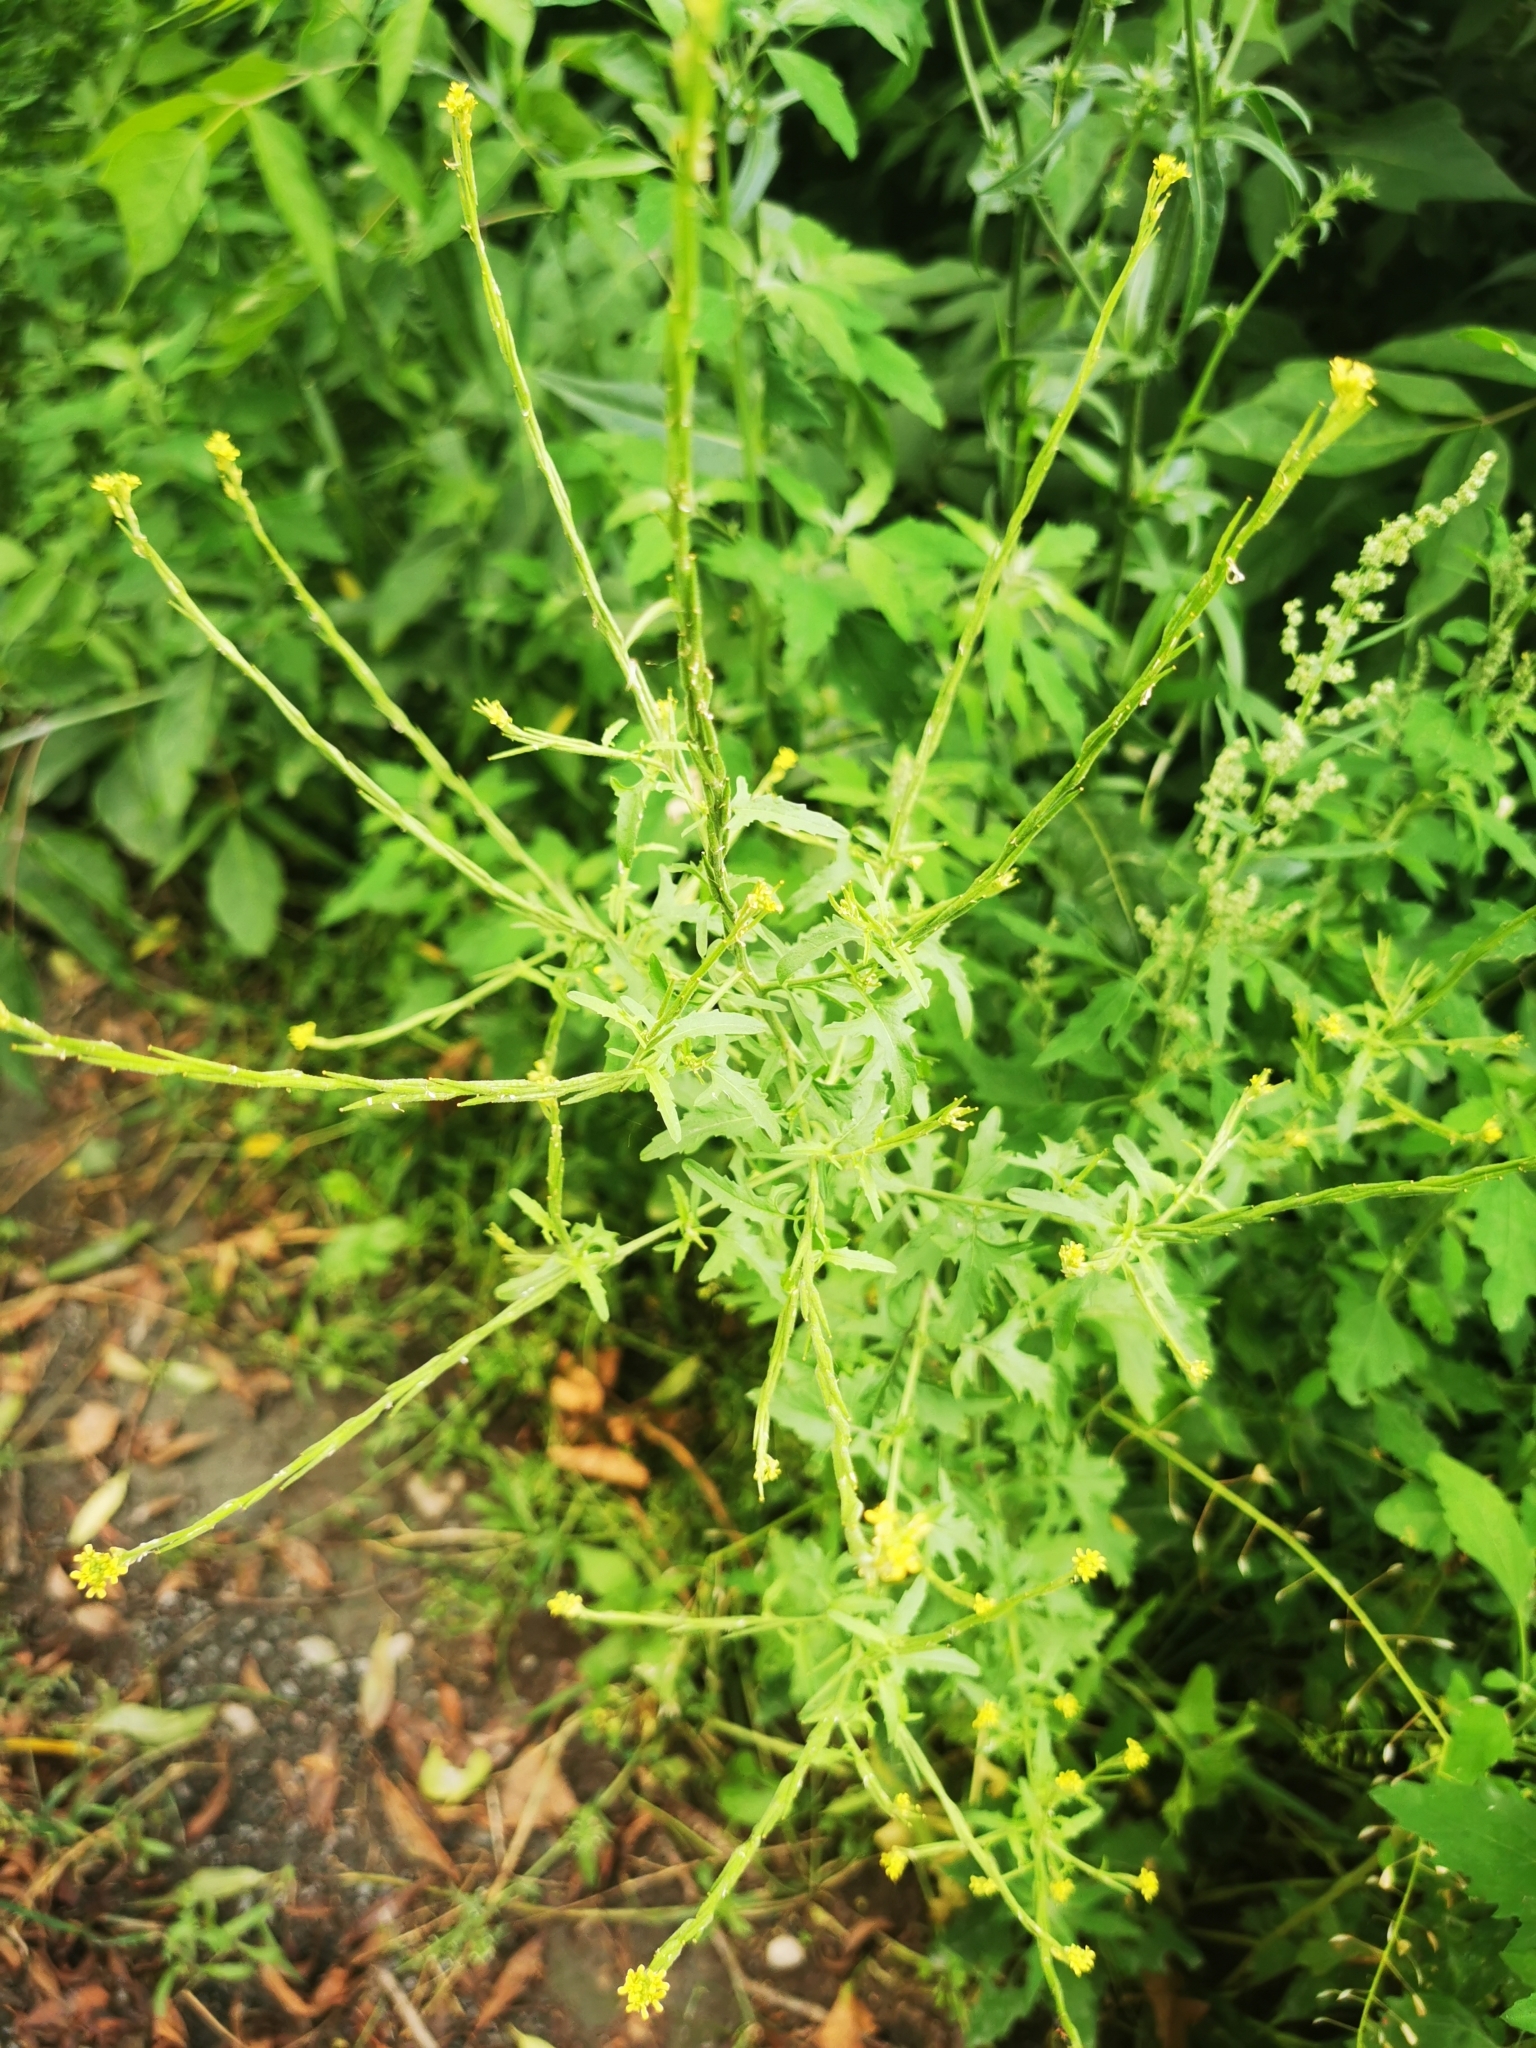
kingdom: Plantae
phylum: Tracheophyta
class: Magnoliopsida
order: Brassicales
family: Brassicaceae
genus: Sisymbrium
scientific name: Sisymbrium officinale
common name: Hedge mustard
